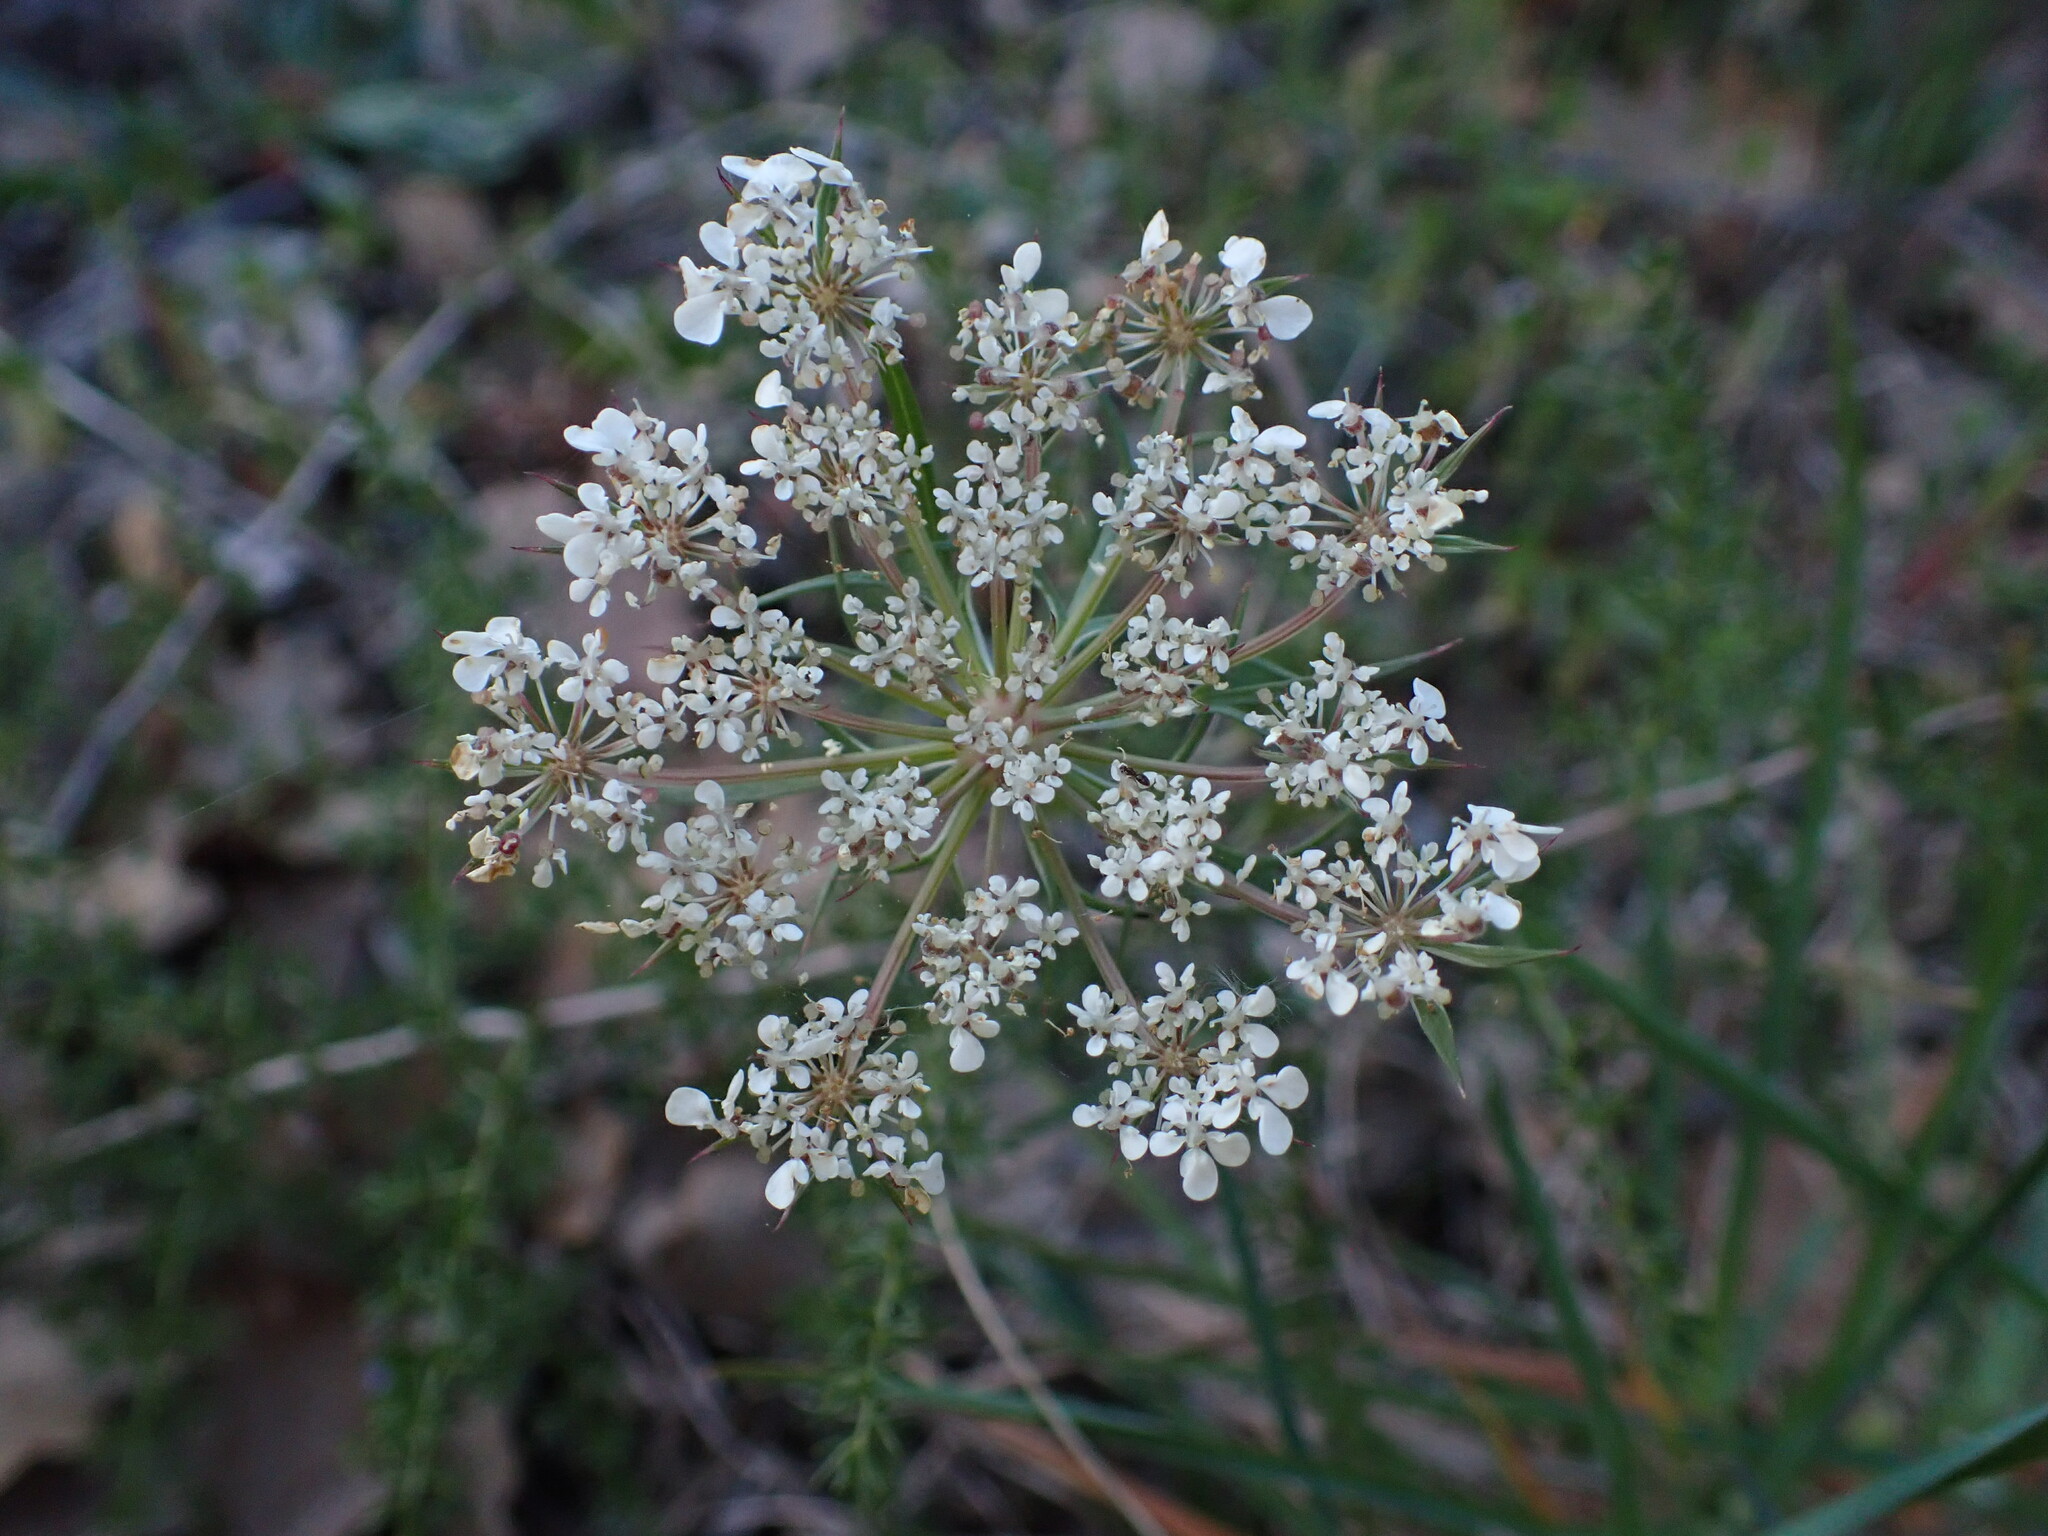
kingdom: Plantae
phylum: Tracheophyta
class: Magnoliopsida
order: Apiales
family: Apiaceae
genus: Daucus
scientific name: Daucus carota
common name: Wild carrot
